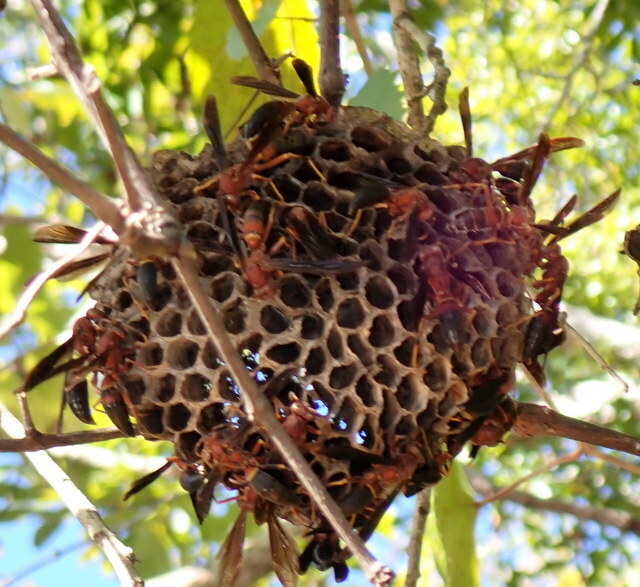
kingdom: Animalia
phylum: Arthropoda
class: Insecta
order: Hymenoptera
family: Eumenidae
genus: Polistes
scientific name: Polistes annularis
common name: Ringed paper wasp
